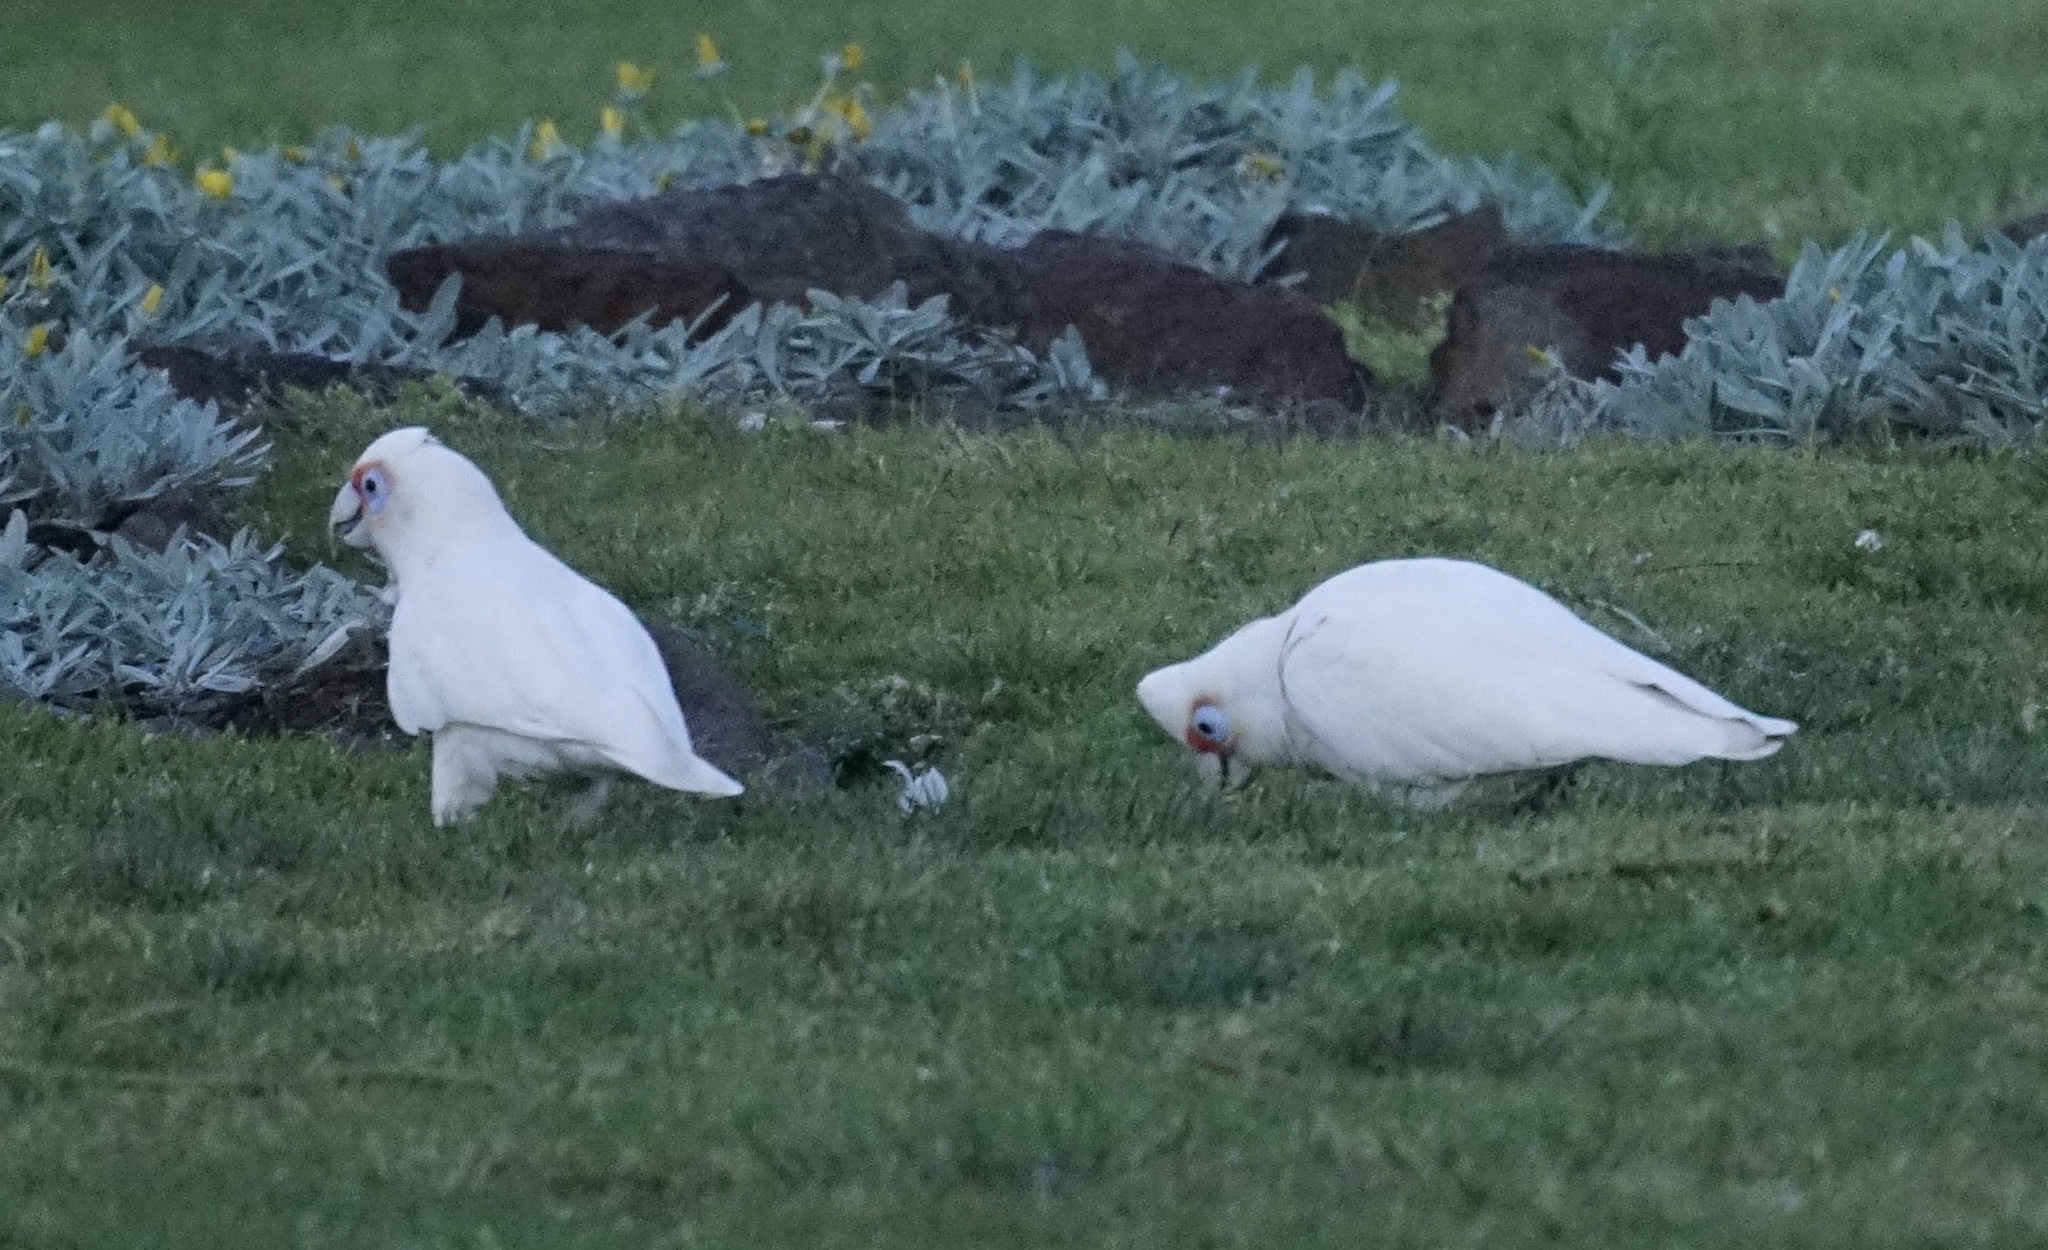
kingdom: Animalia
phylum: Chordata
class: Aves
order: Psittaciformes
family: Psittacidae
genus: Cacatua
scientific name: Cacatua tenuirostris
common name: Long-billed corella
